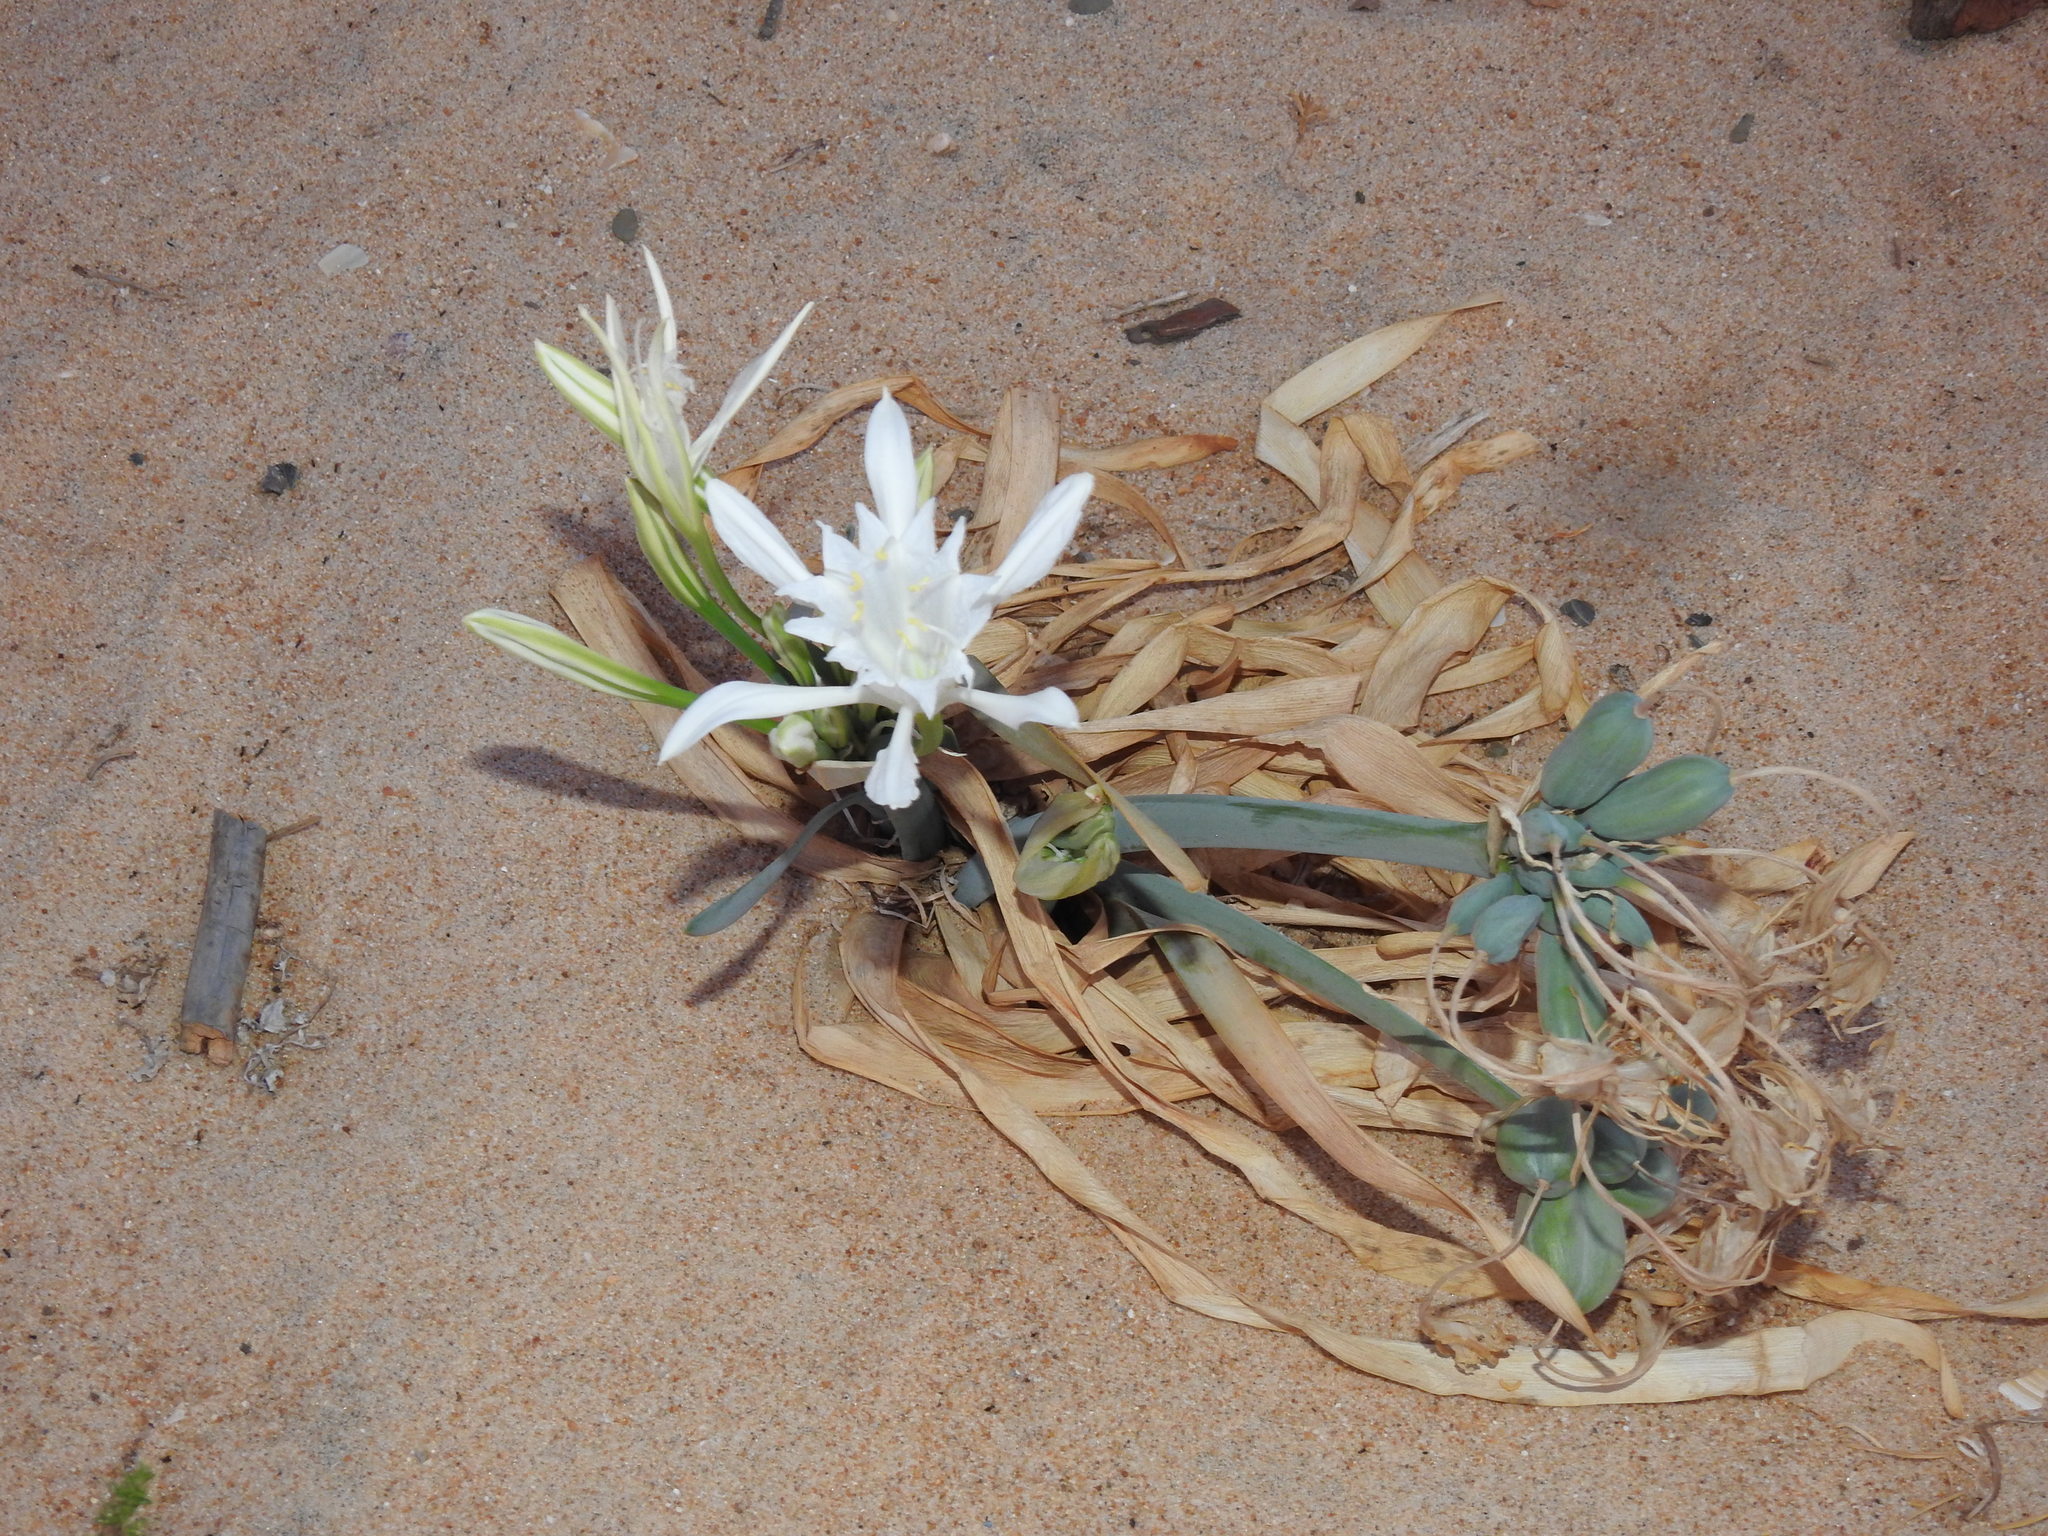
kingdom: Plantae
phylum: Tracheophyta
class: Liliopsida
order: Asparagales
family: Amaryllidaceae
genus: Pancratium
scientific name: Pancratium maritimum
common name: Sea-daffodil
